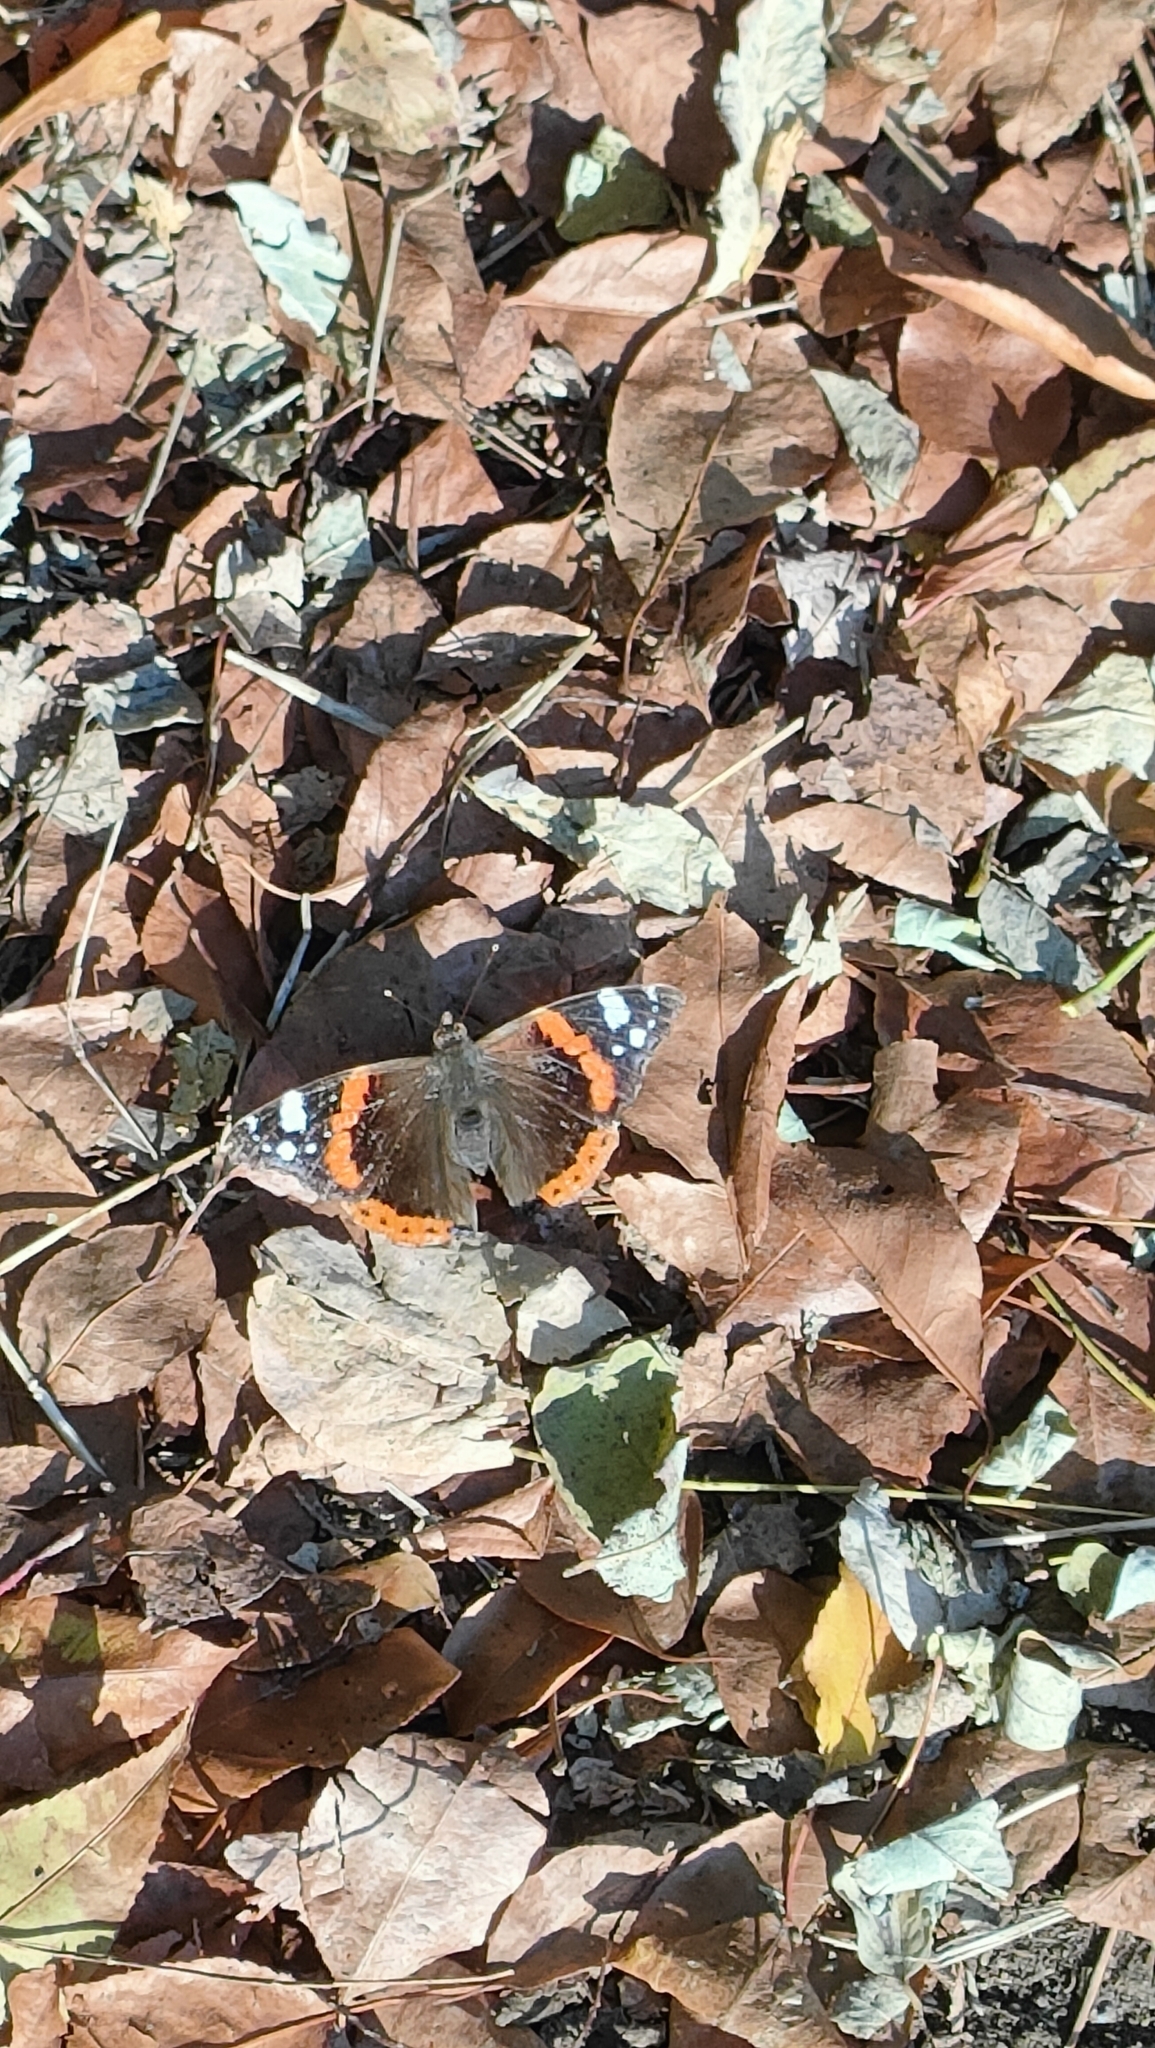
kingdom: Animalia
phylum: Arthropoda
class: Insecta
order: Lepidoptera
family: Nymphalidae
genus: Vanessa
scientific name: Vanessa atalanta
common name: Red admiral
